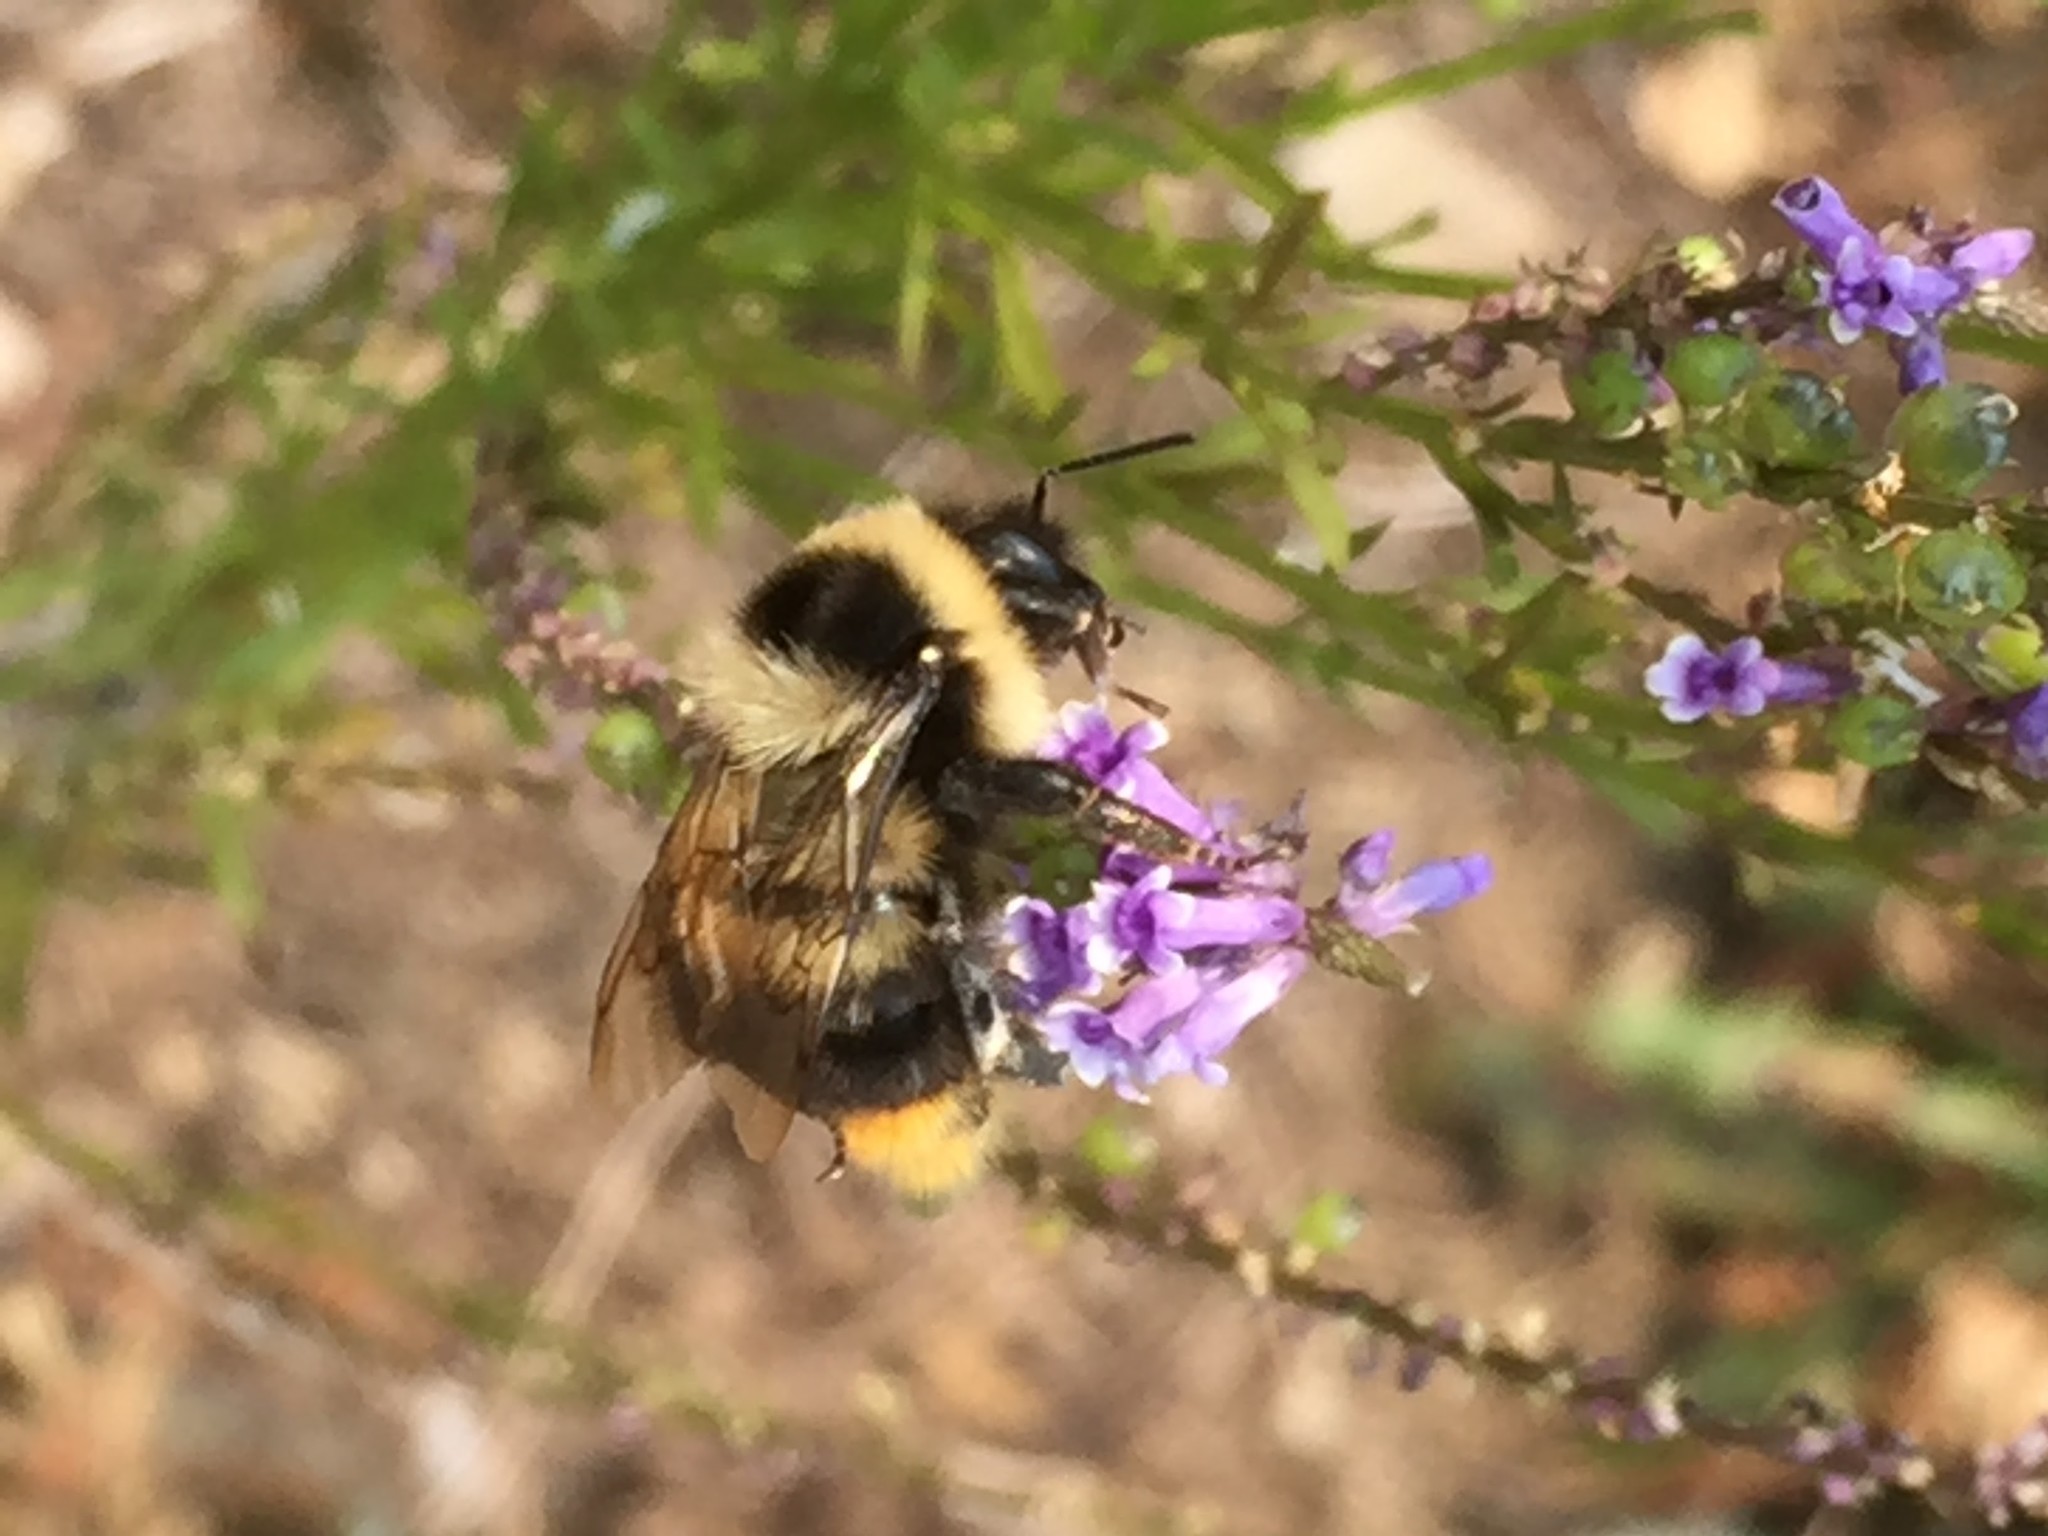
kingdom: Plantae
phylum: Tracheophyta
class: Magnoliopsida
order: Lamiales
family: Plantaginaceae
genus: Anarrhinum
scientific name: Anarrhinum bellidifolium
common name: Daisy-leaved toadflax
